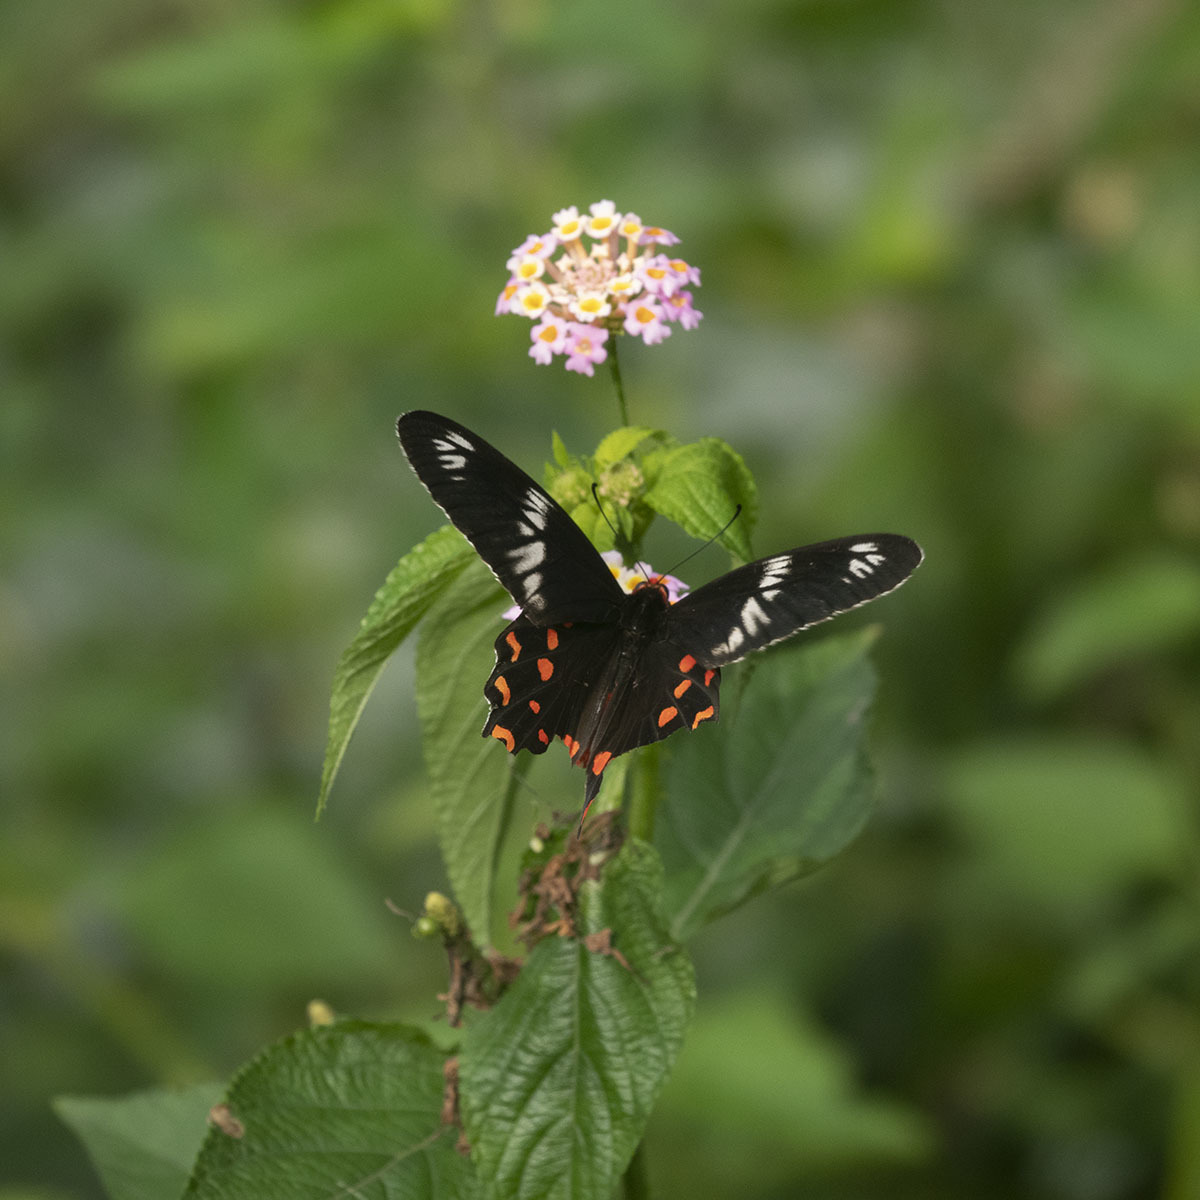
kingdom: Animalia
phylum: Arthropoda
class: Insecta
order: Lepidoptera
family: Papilionidae
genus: Pachliopta
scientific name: Pachliopta hector
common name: Crimson rose
